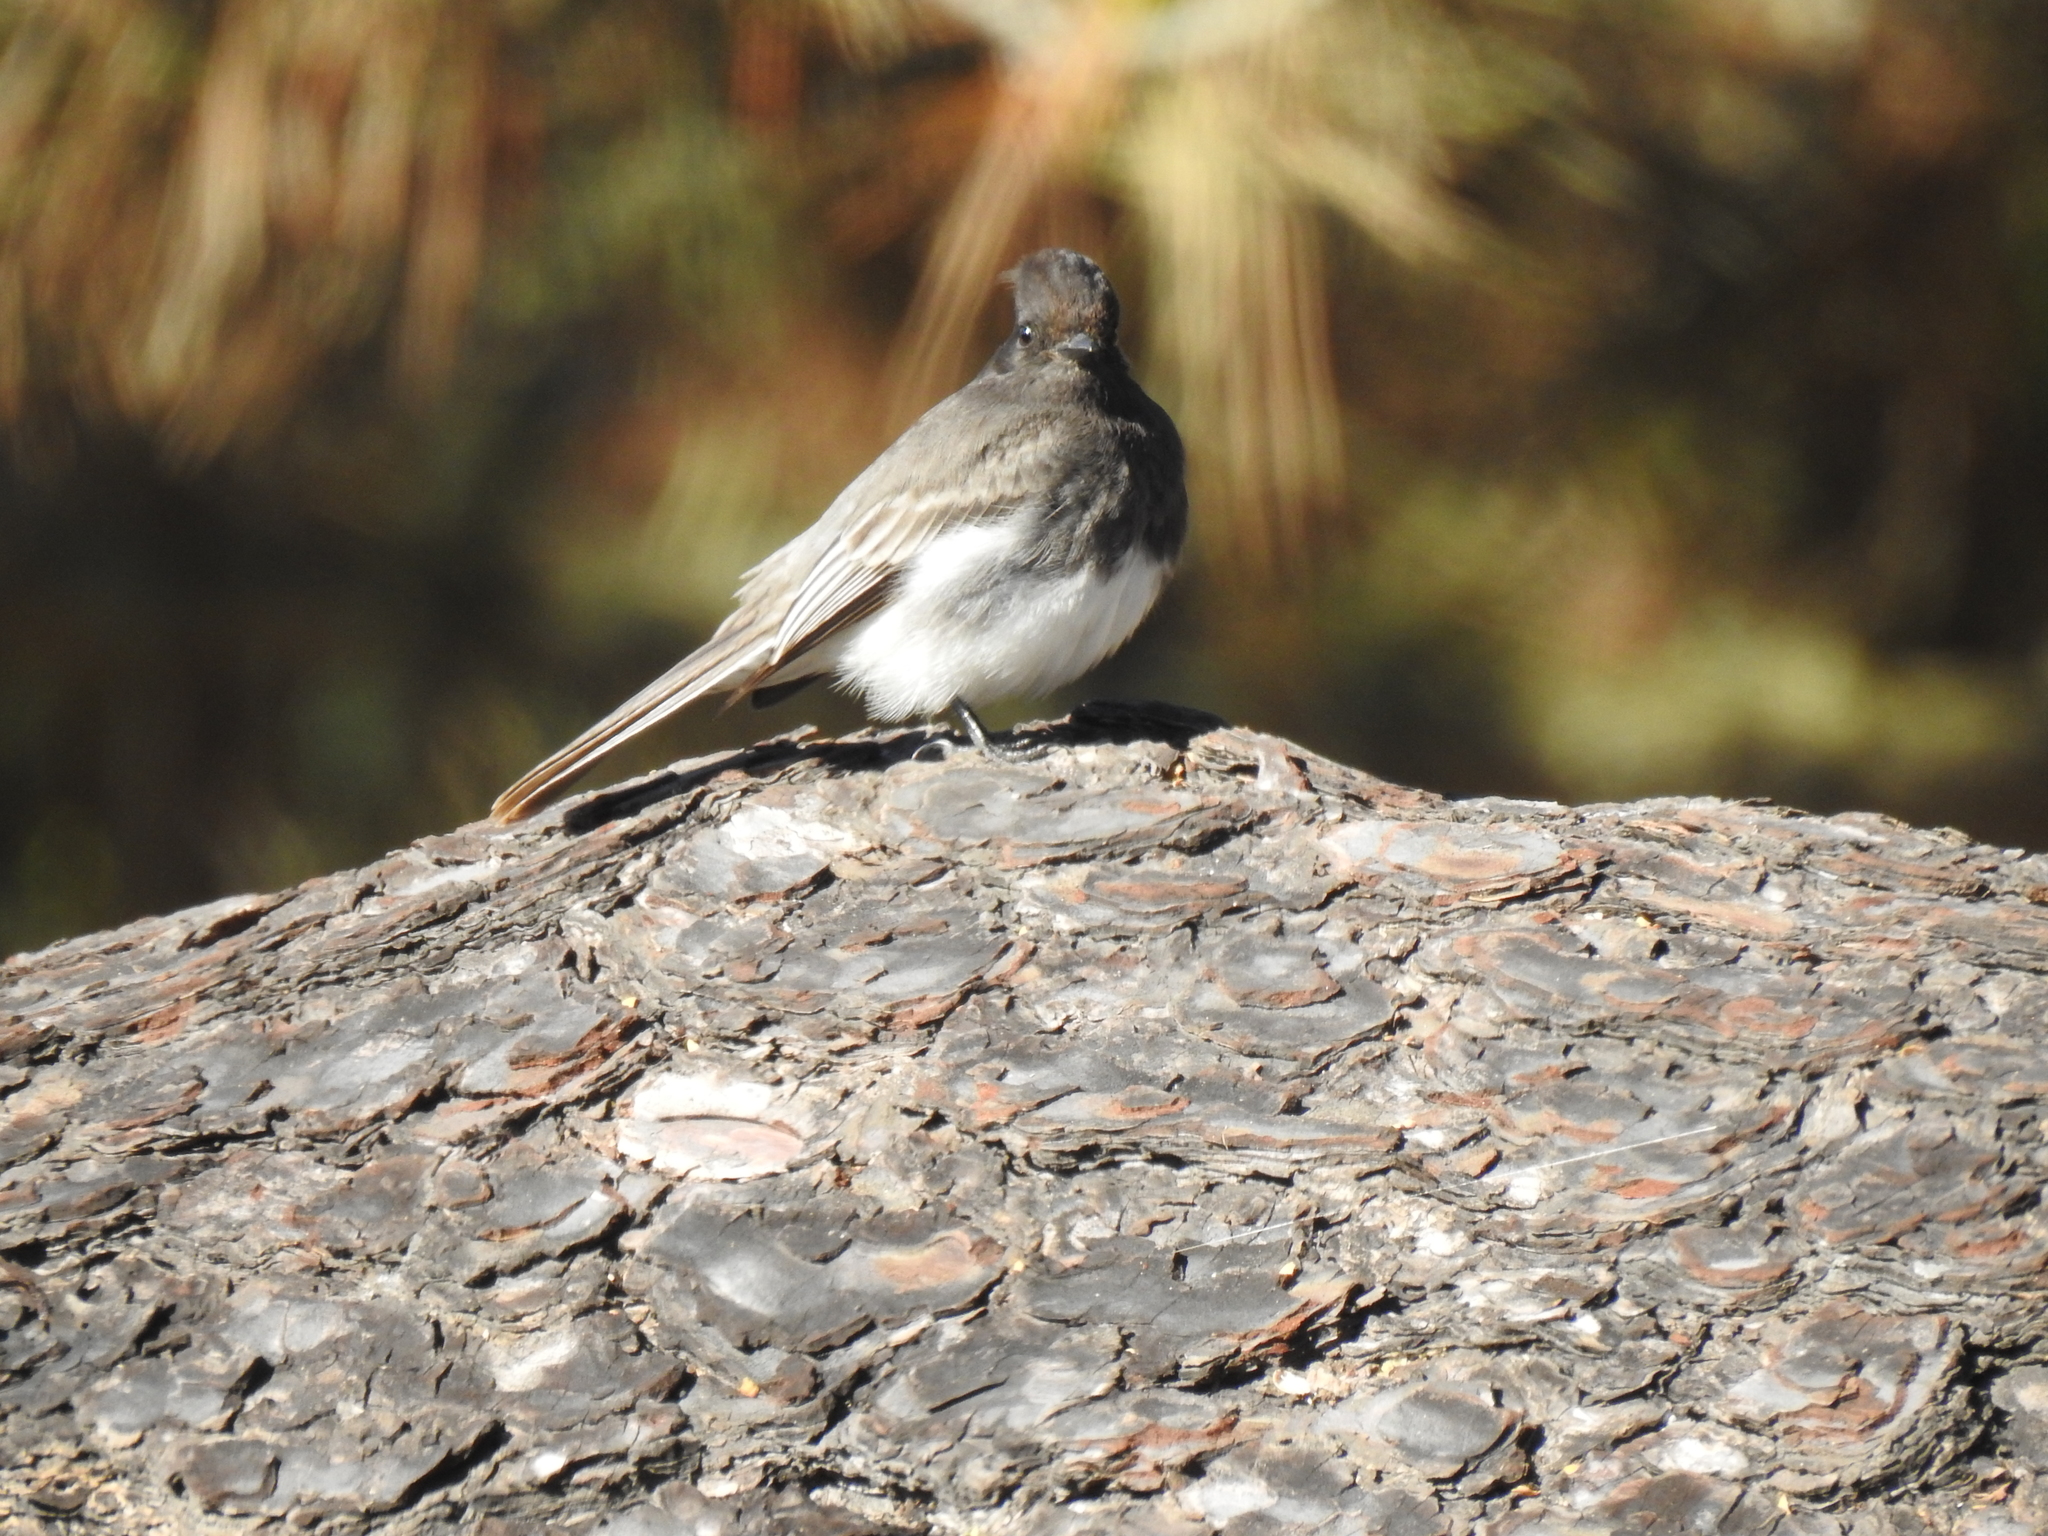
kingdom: Animalia
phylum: Chordata
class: Aves
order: Passeriformes
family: Tyrannidae
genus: Sayornis
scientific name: Sayornis nigricans
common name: Black phoebe
